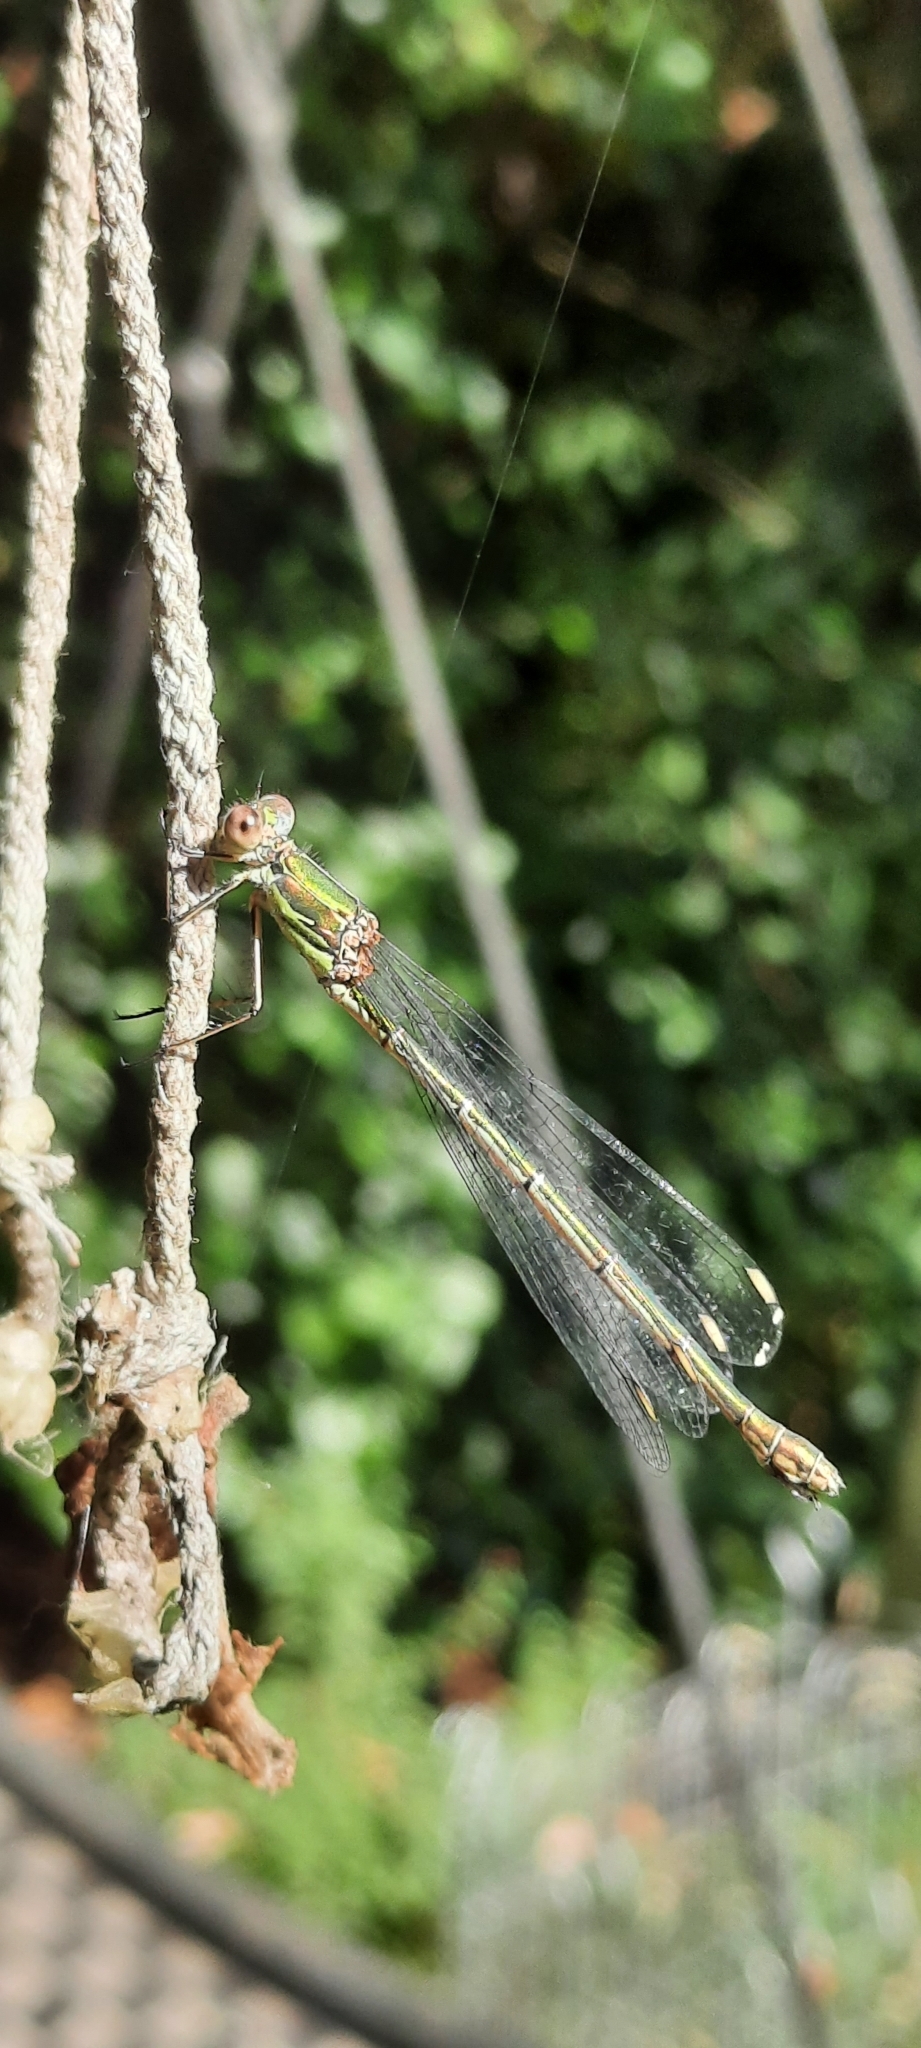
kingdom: Animalia
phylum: Arthropoda
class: Insecta
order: Odonata
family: Lestidae
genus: Chalcolestes
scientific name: Chalcolestes viridis
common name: Green emerald damselfly
